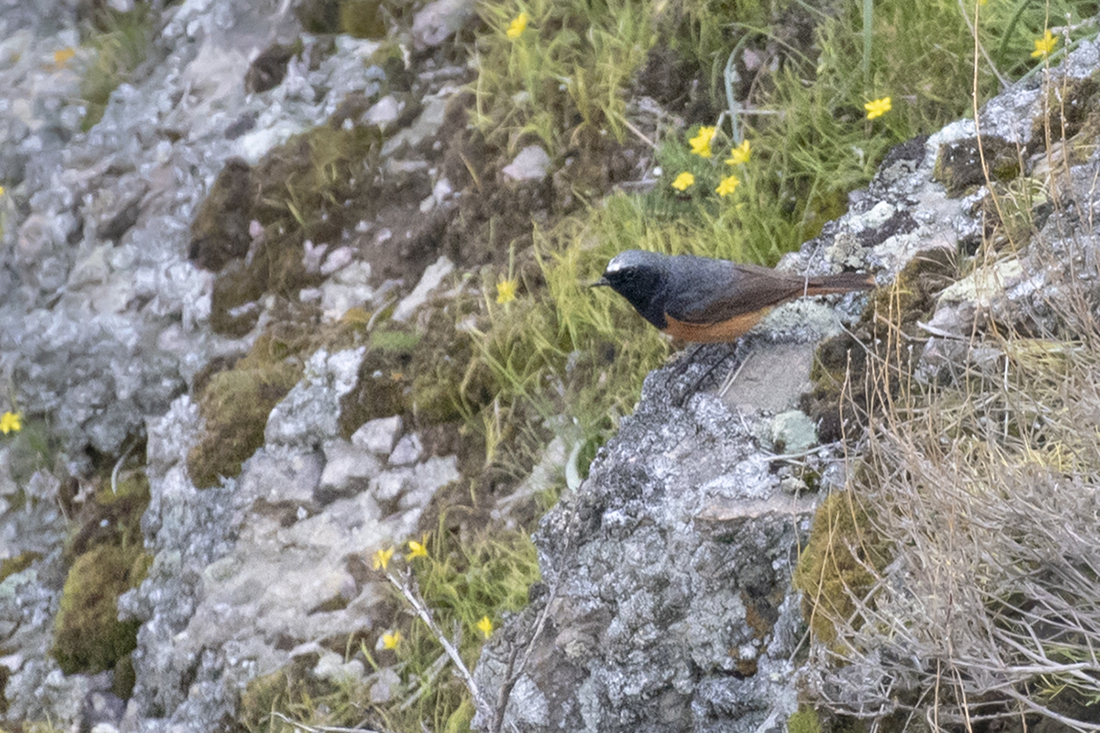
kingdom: Animalia
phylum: Chordata
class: Aves
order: Passeriformes
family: Muscicapidae
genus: Phoenicurus
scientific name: Phoenicurus ochruros
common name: Black redstart
